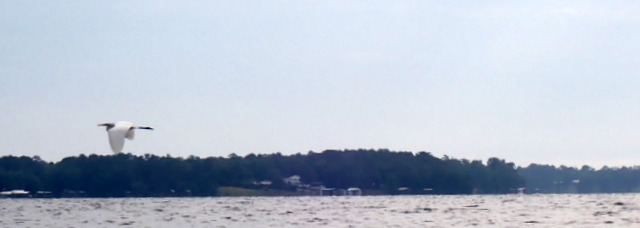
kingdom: Animalia
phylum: Chordata
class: Aves
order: Pelecaniformes
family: Ardeidae
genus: Ardea
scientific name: Ardea alba
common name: Great egret
